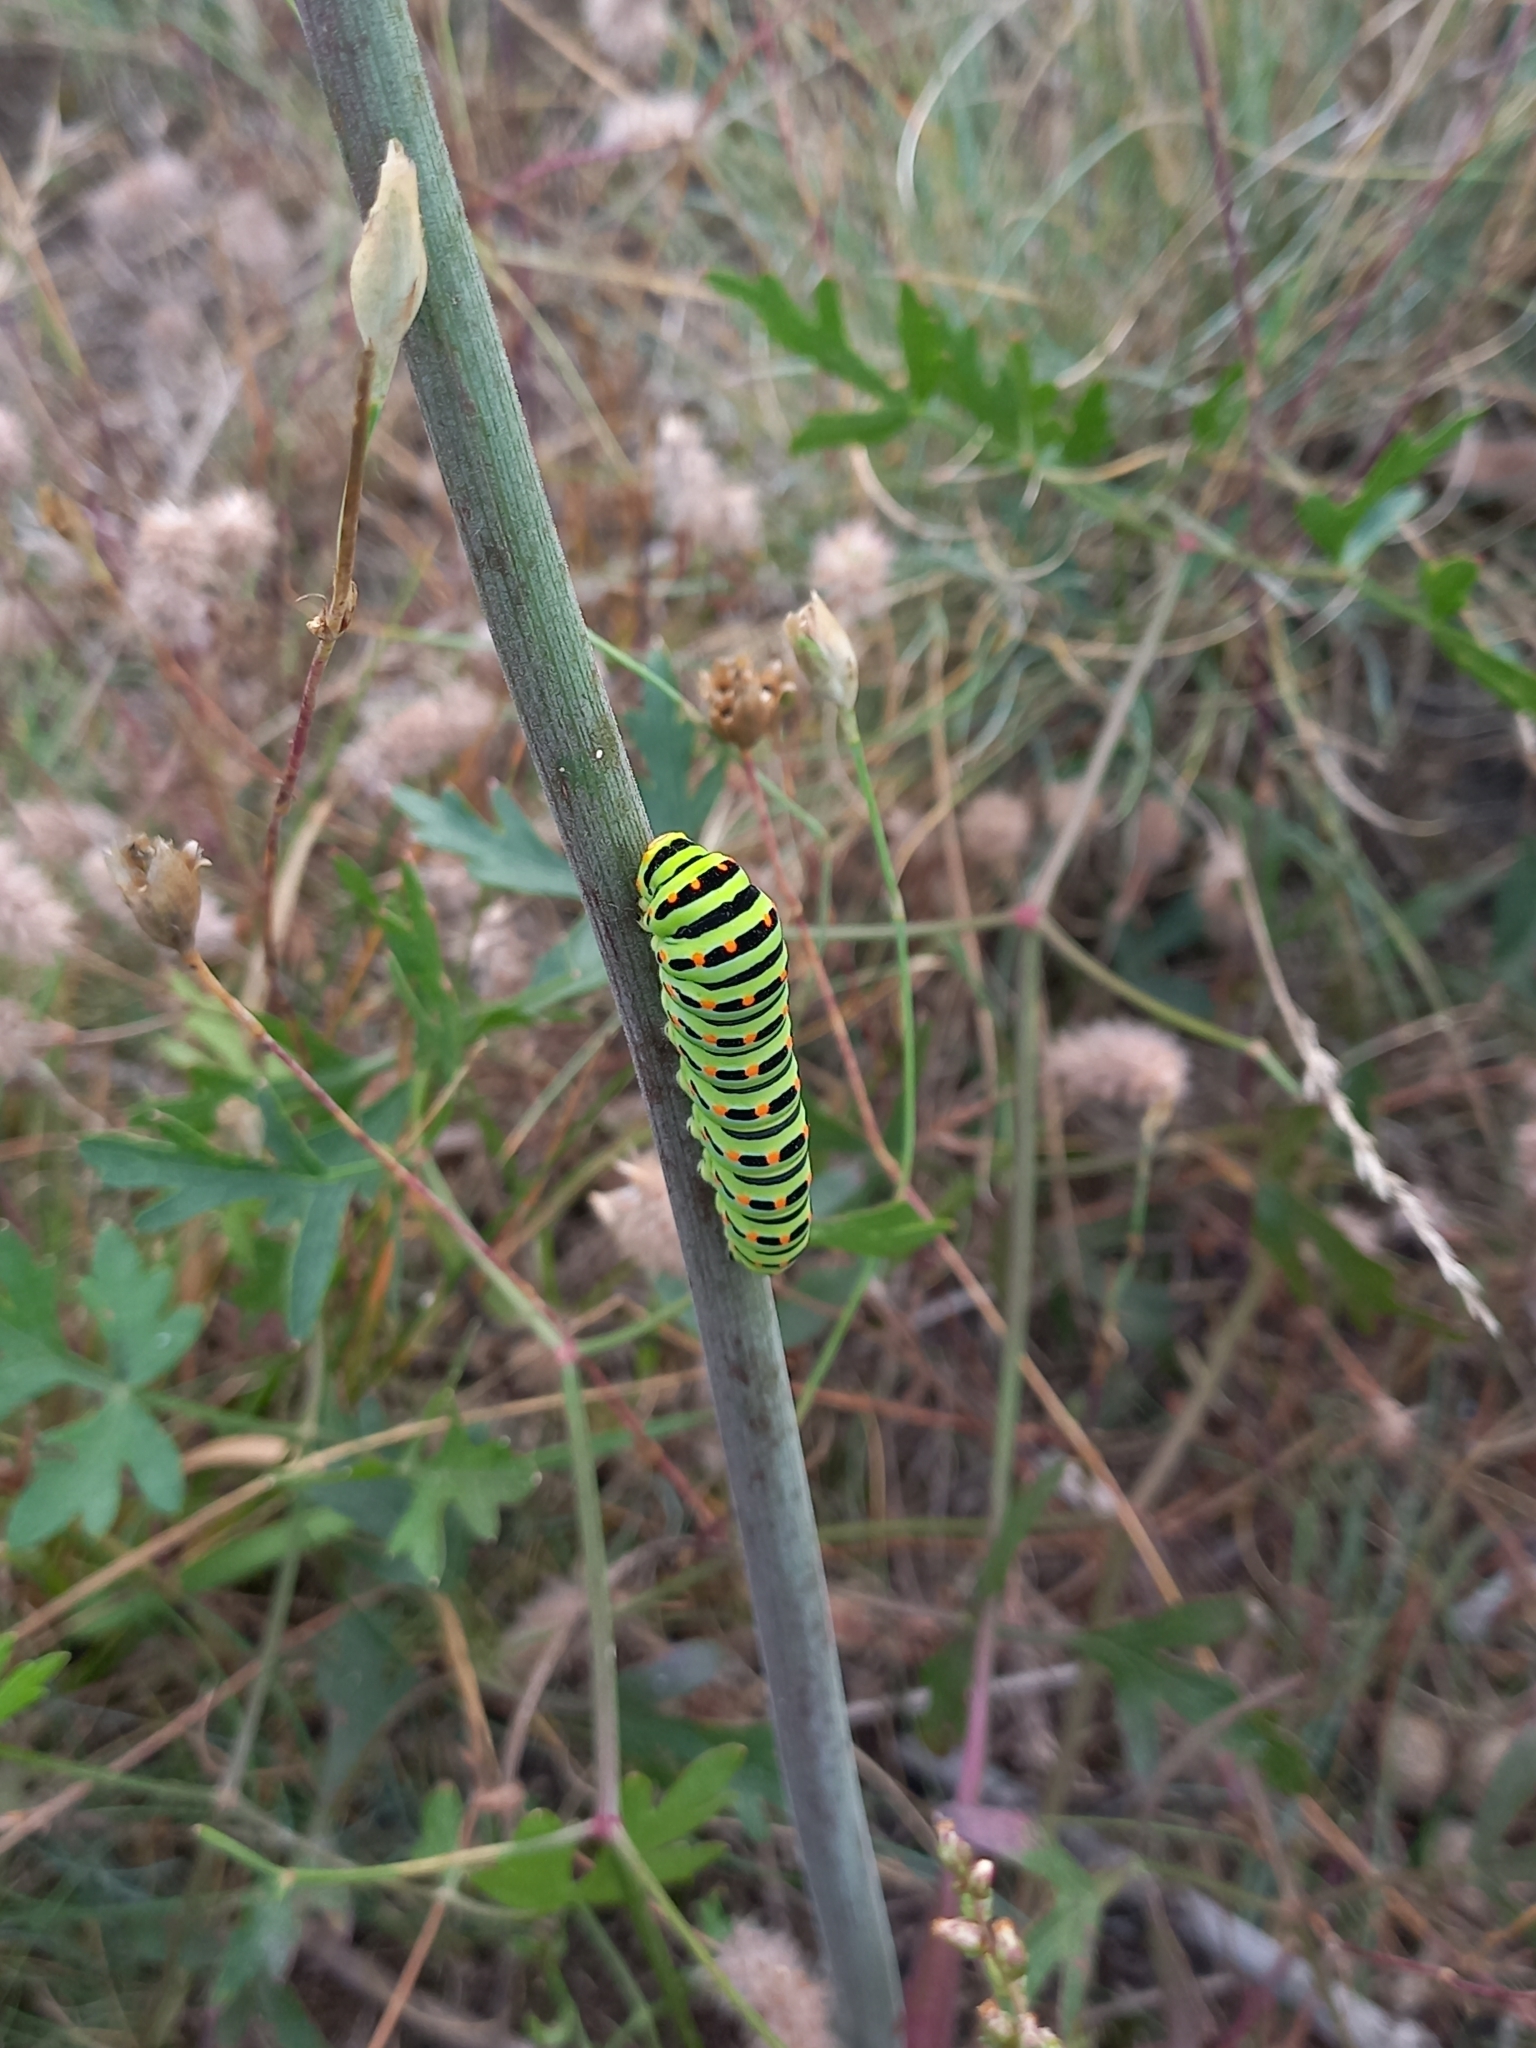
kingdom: Animalia
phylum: Arthropoda
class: Insecta
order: Lepidoptera
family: Papilionidae
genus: Papilio
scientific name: Papilio machaon
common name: Swallowtail
